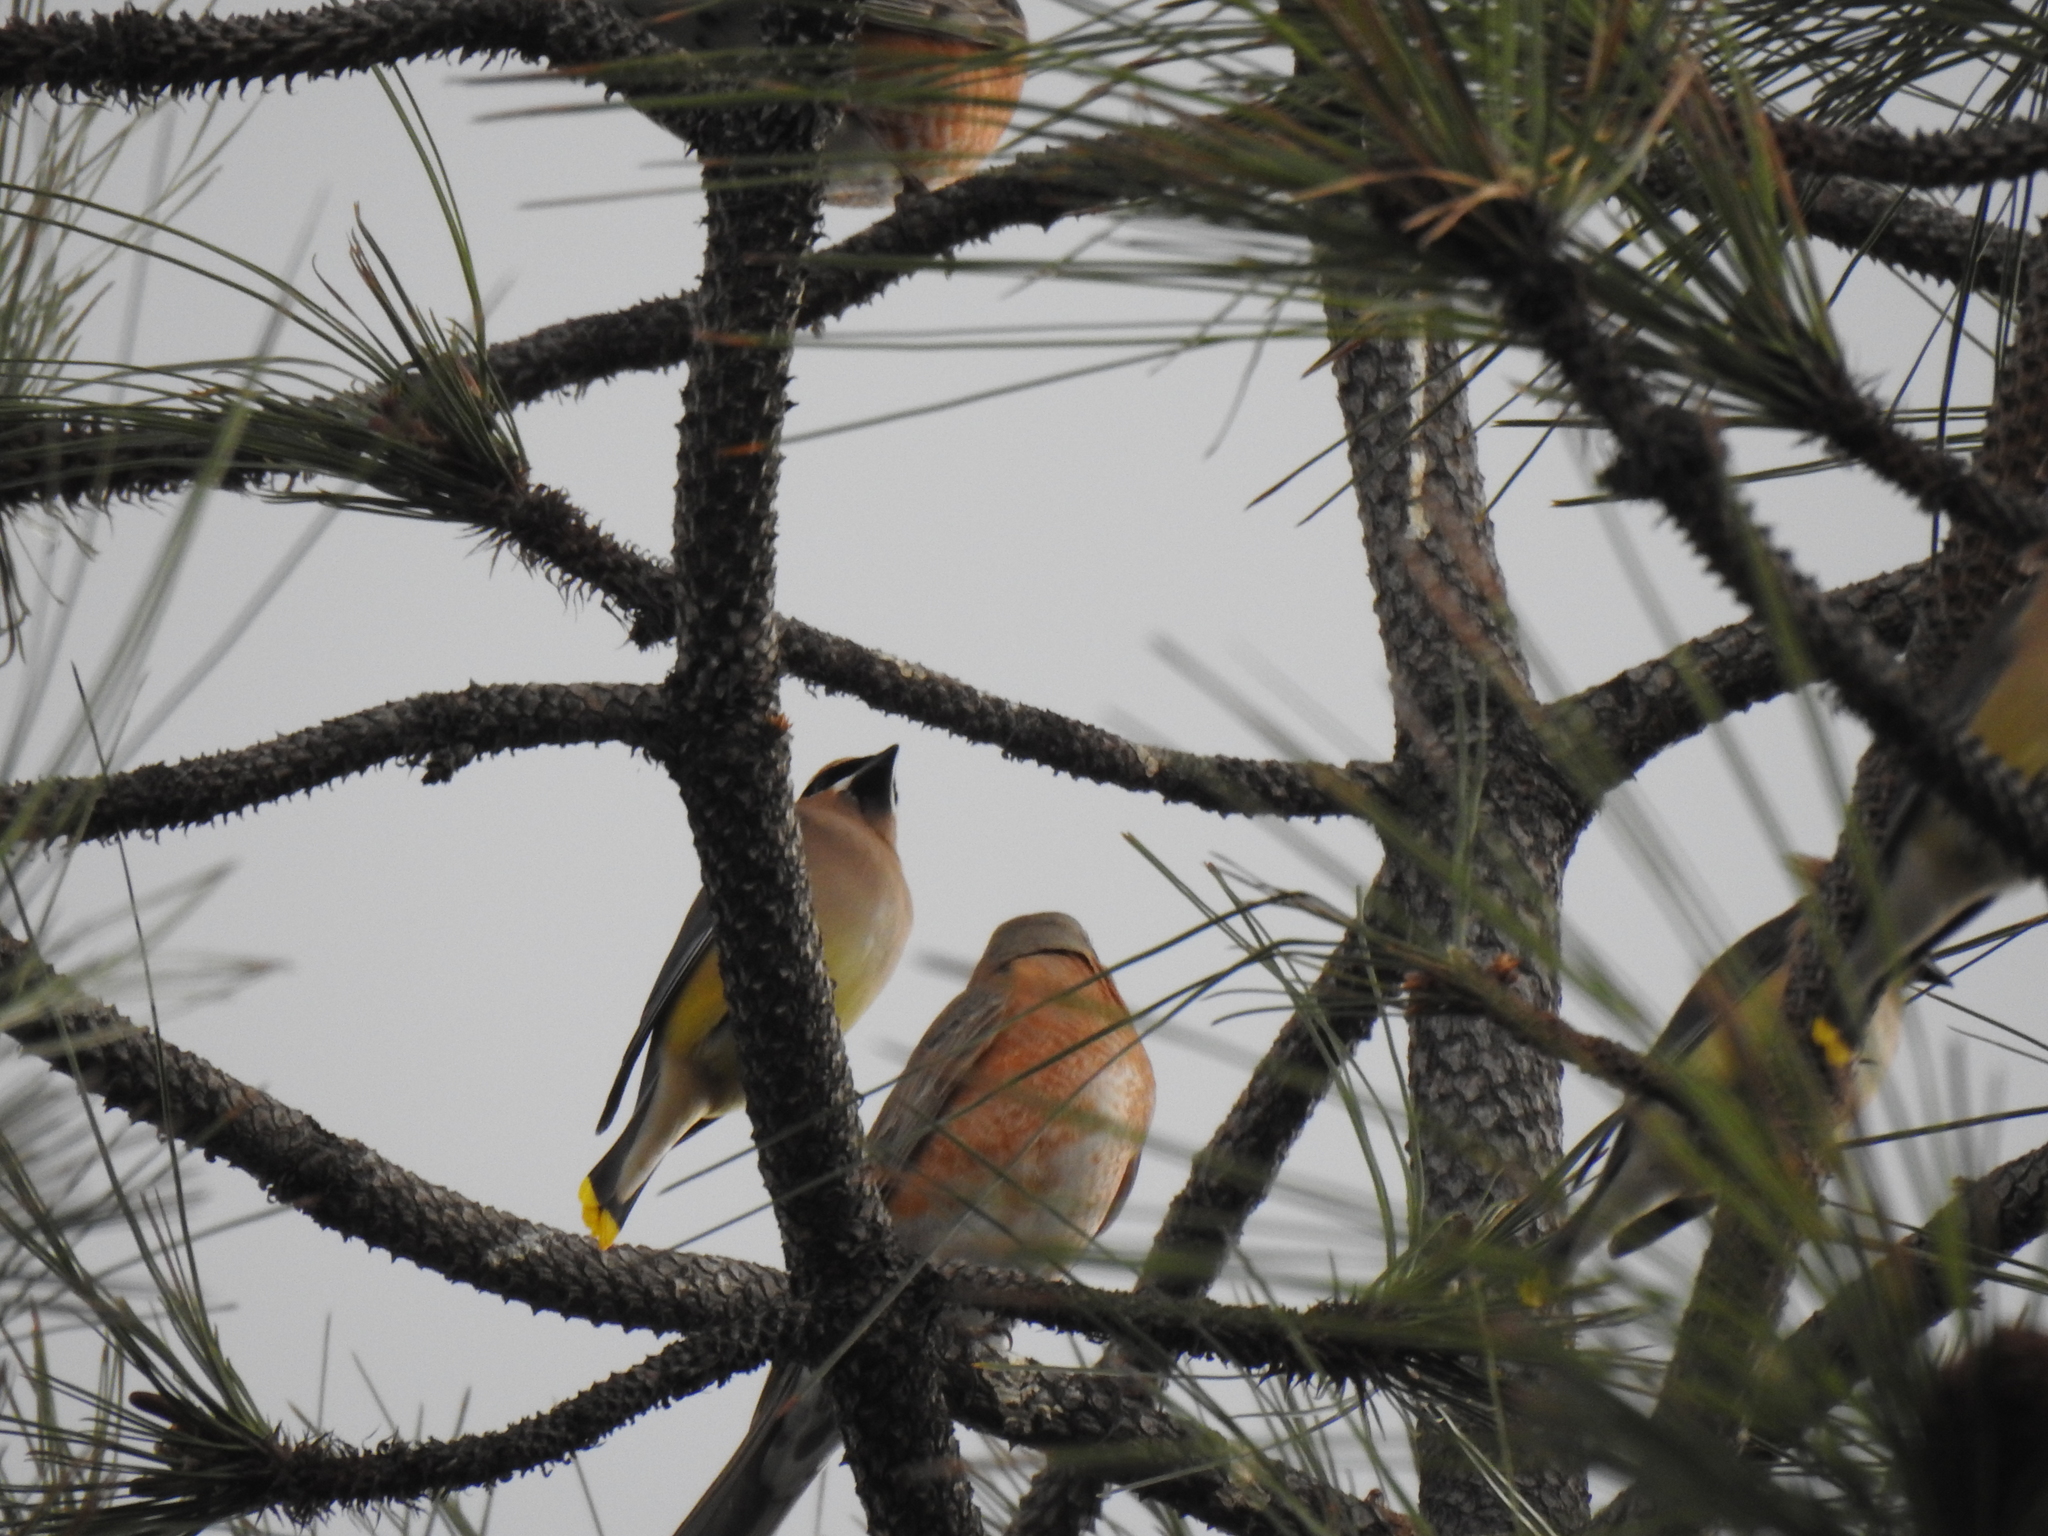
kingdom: Animalia
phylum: Chordata
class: Aves
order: Passeriformes
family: Bombycillidae
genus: Bombycilla
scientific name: Bombycilla cedrorum
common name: Cedar waxwing
